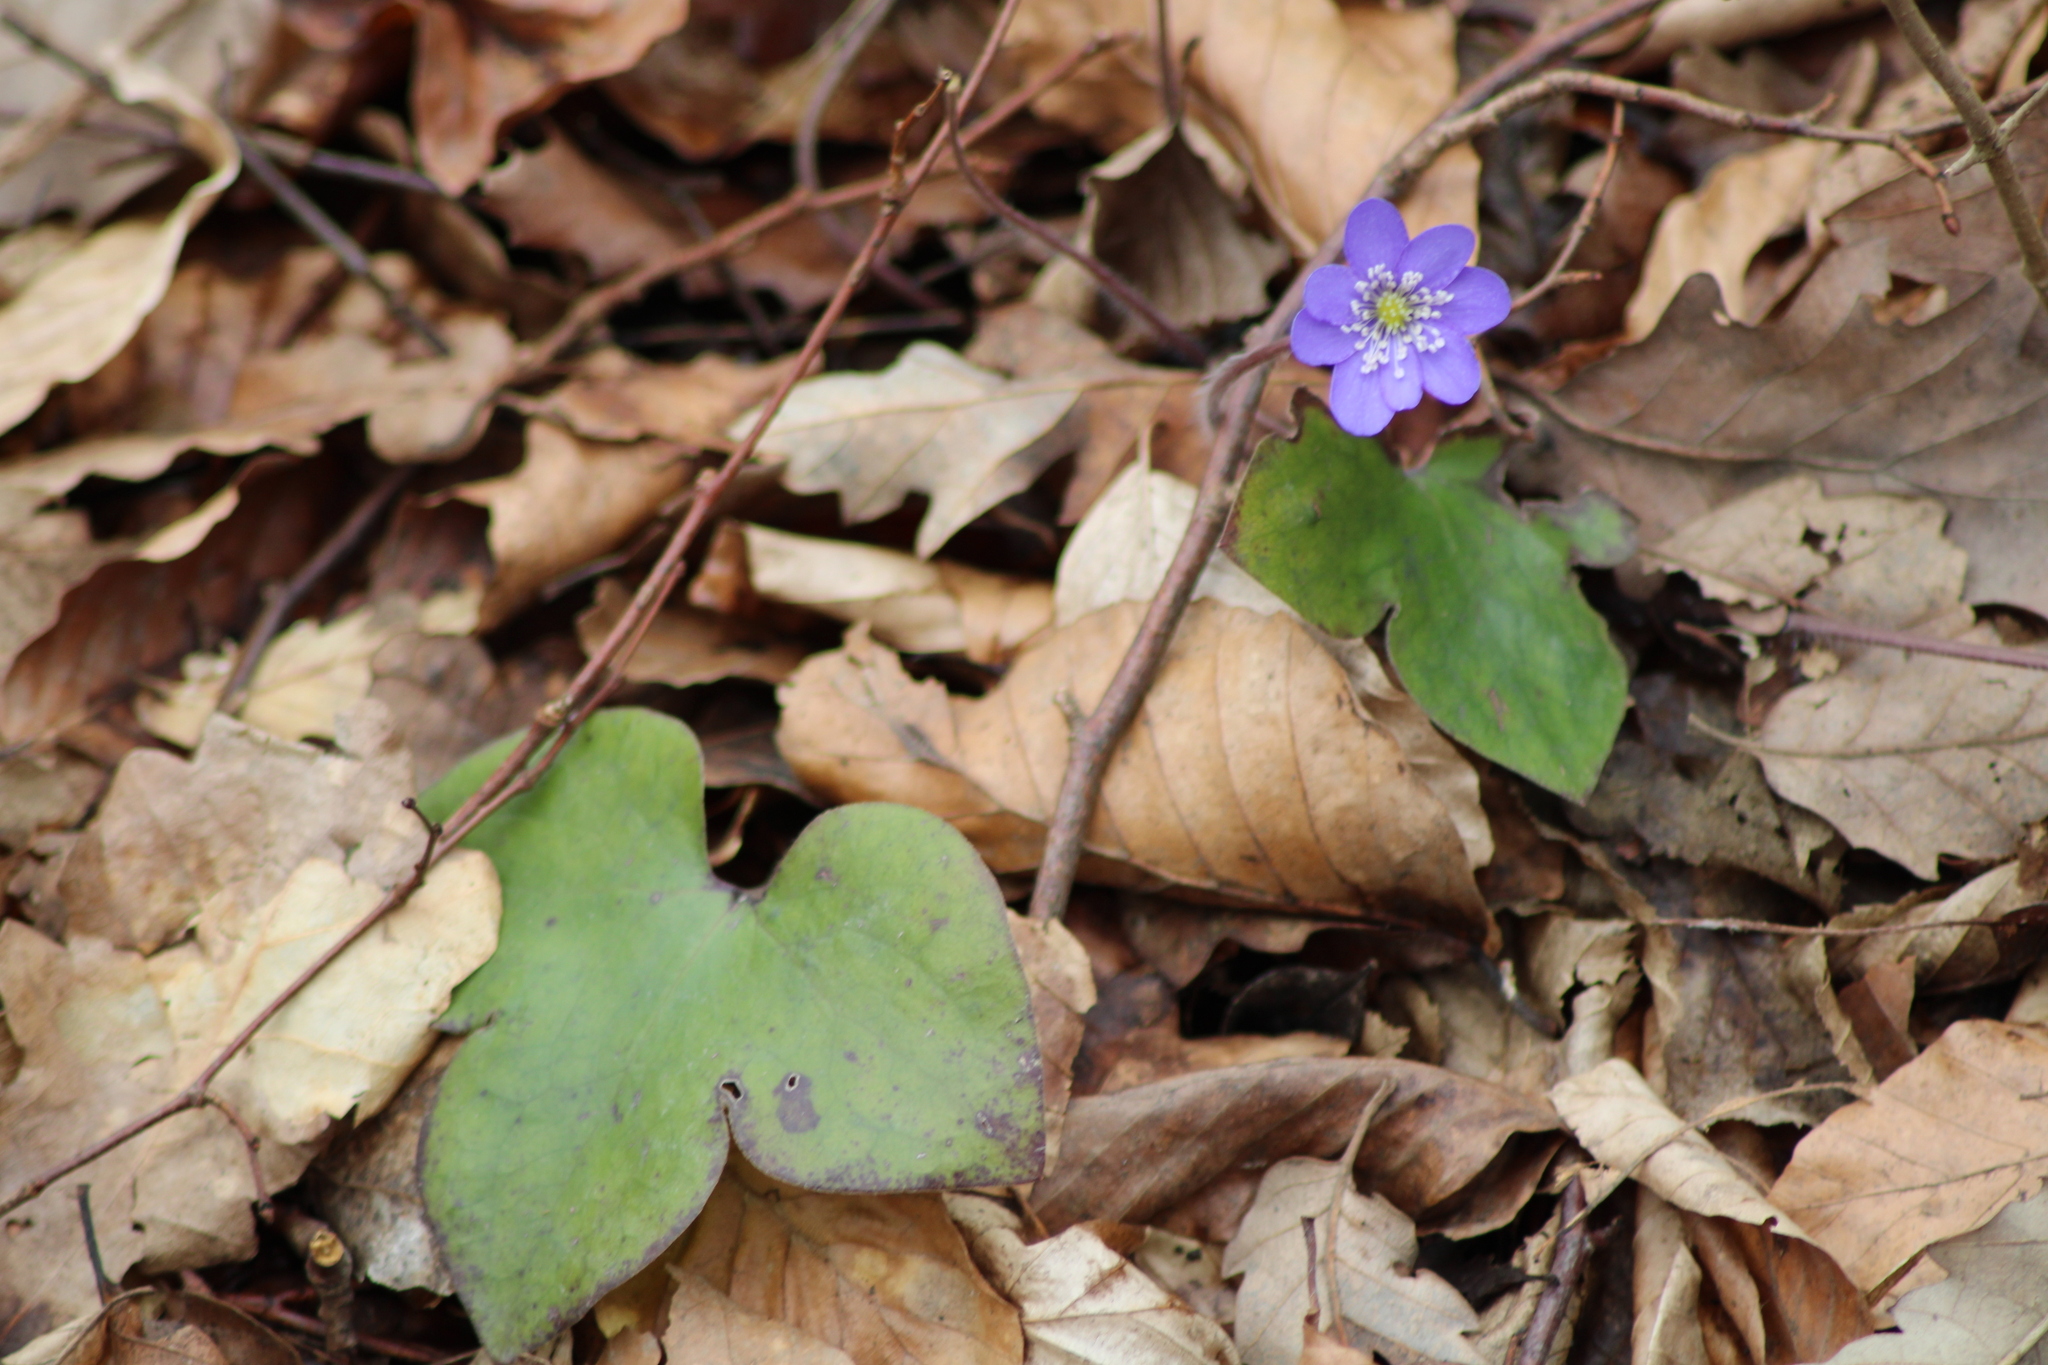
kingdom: Plantae
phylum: Tracheophyta
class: Magnoliopsida
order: Ranunculales
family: Ranunculaceae
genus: Hepatica
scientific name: Hepatica nobilis
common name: Liverleaf
